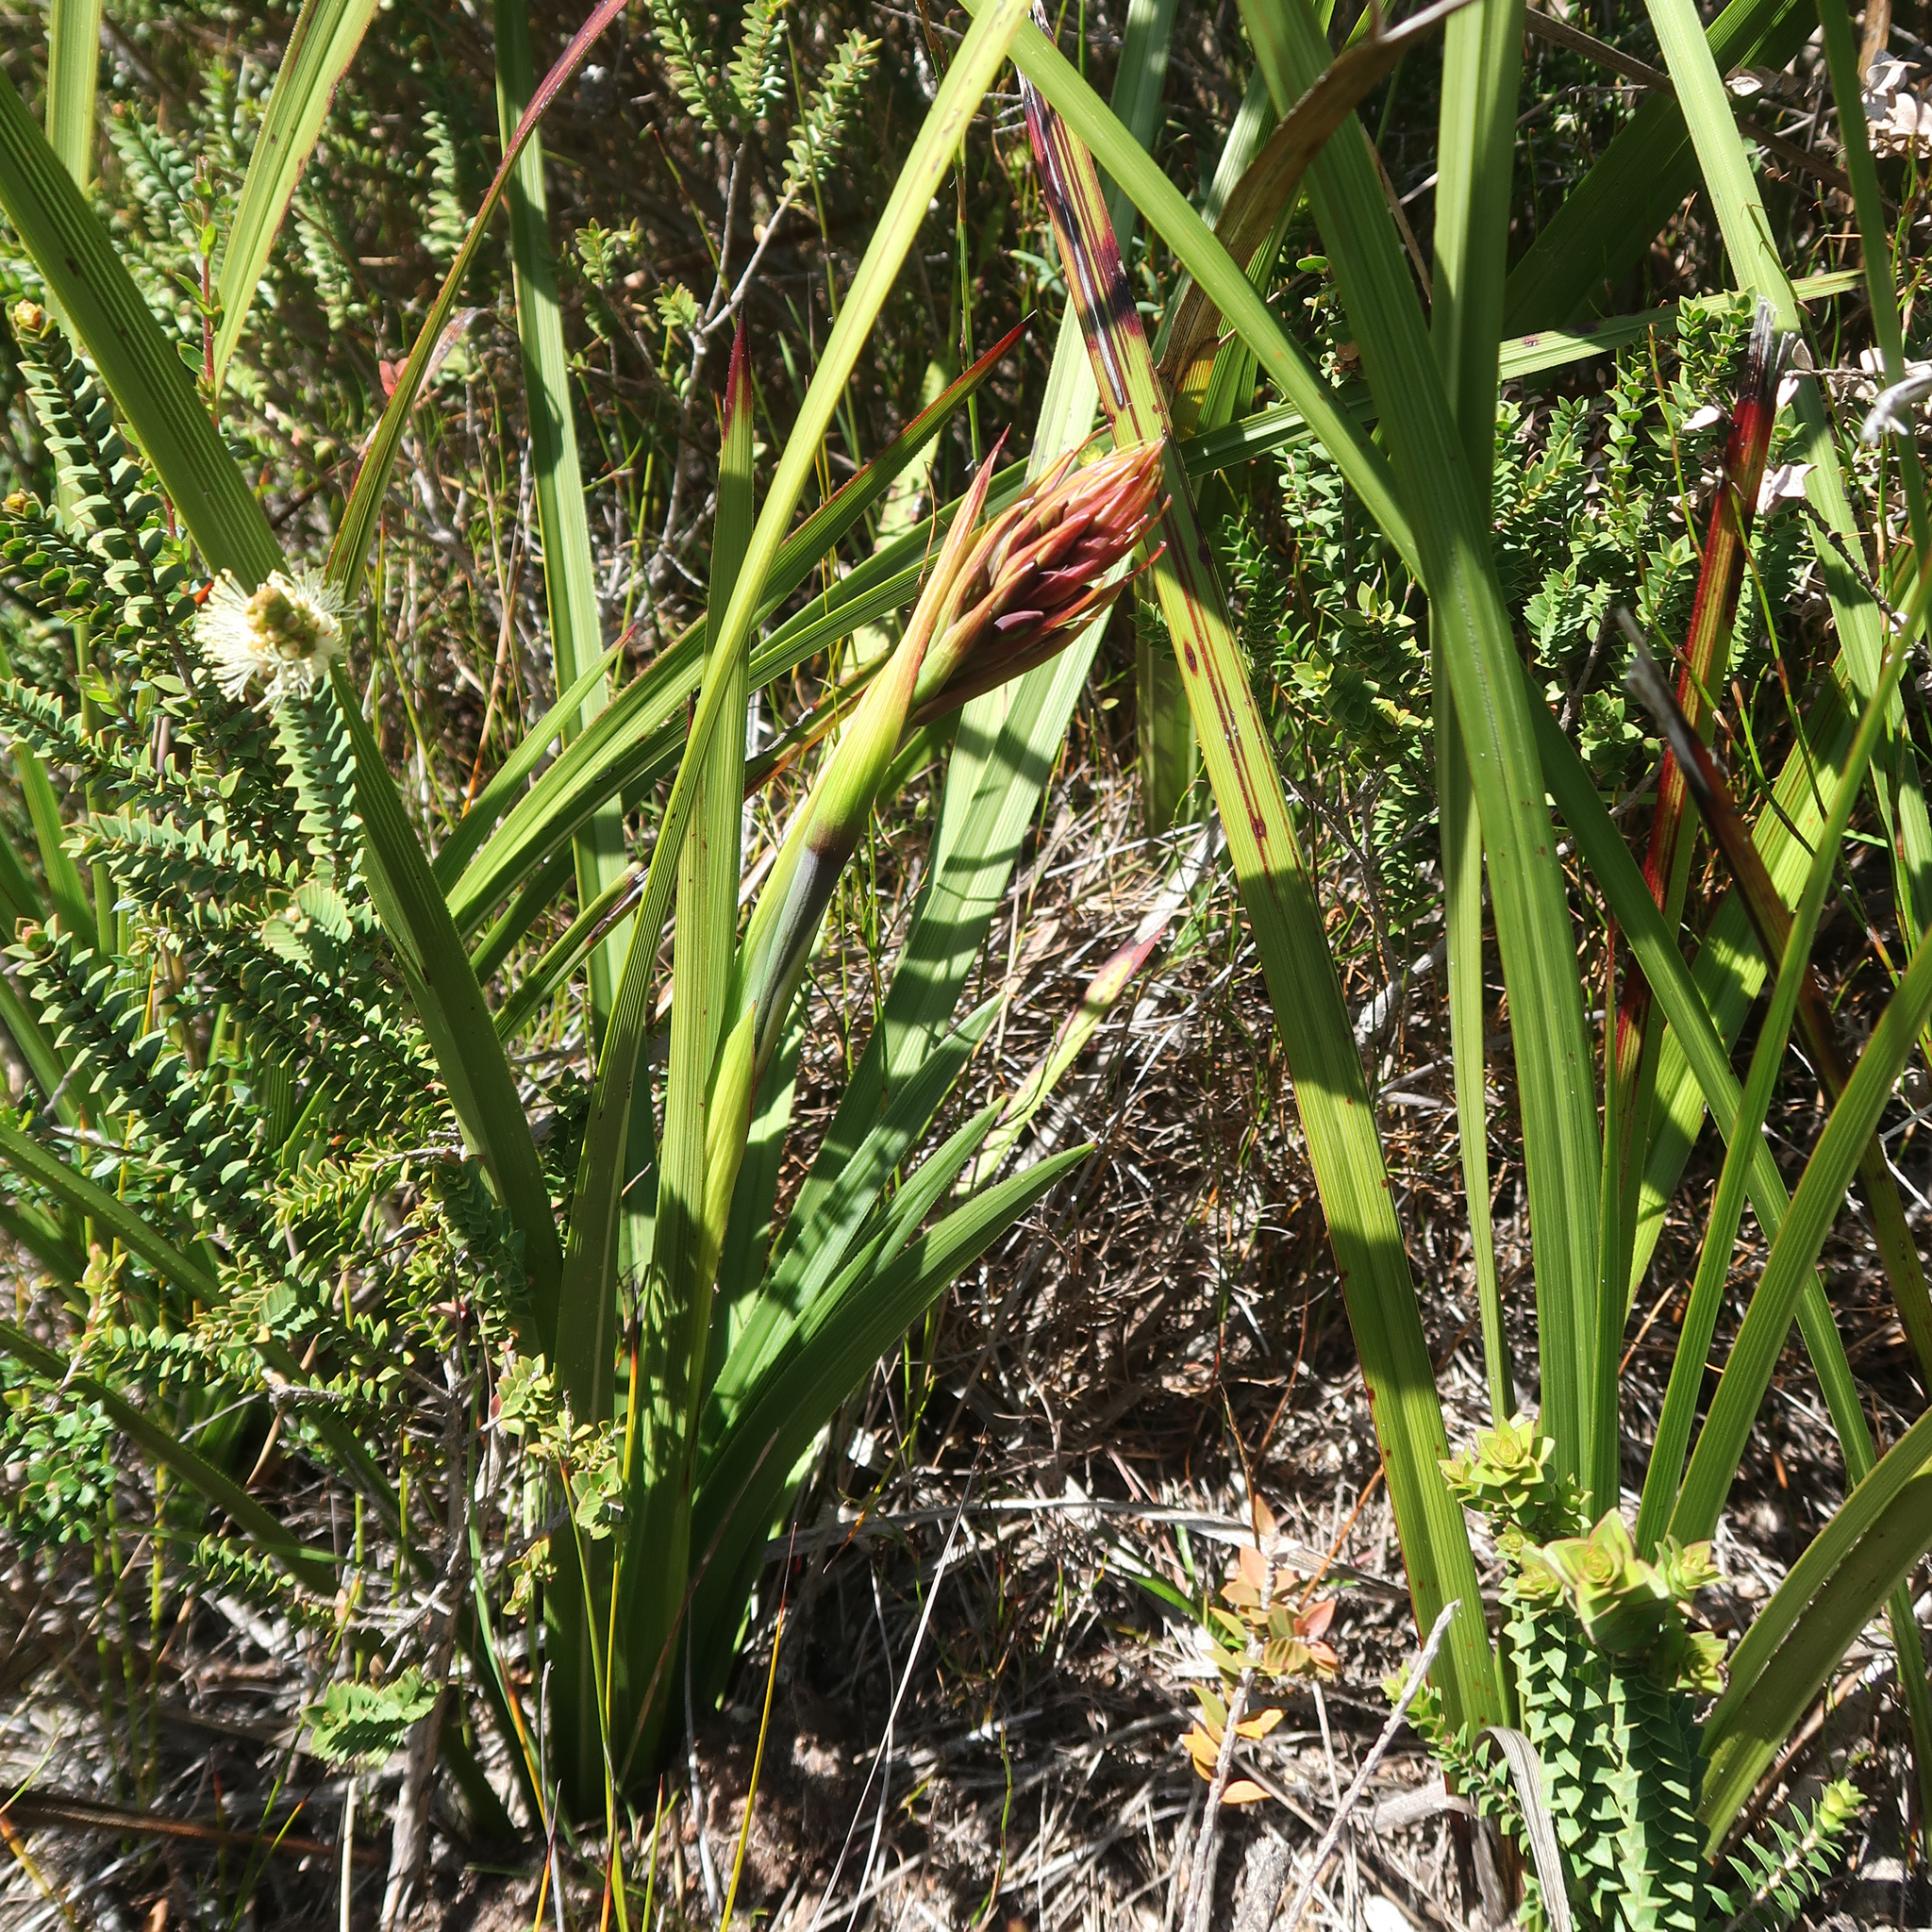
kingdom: Plantae
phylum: Tracheophyta
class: Liliopsida
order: Asparagales
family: Blandfordiaceae
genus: Blandfordia
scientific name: Blandfordia punicea
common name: Tasmanian christmas-bell
